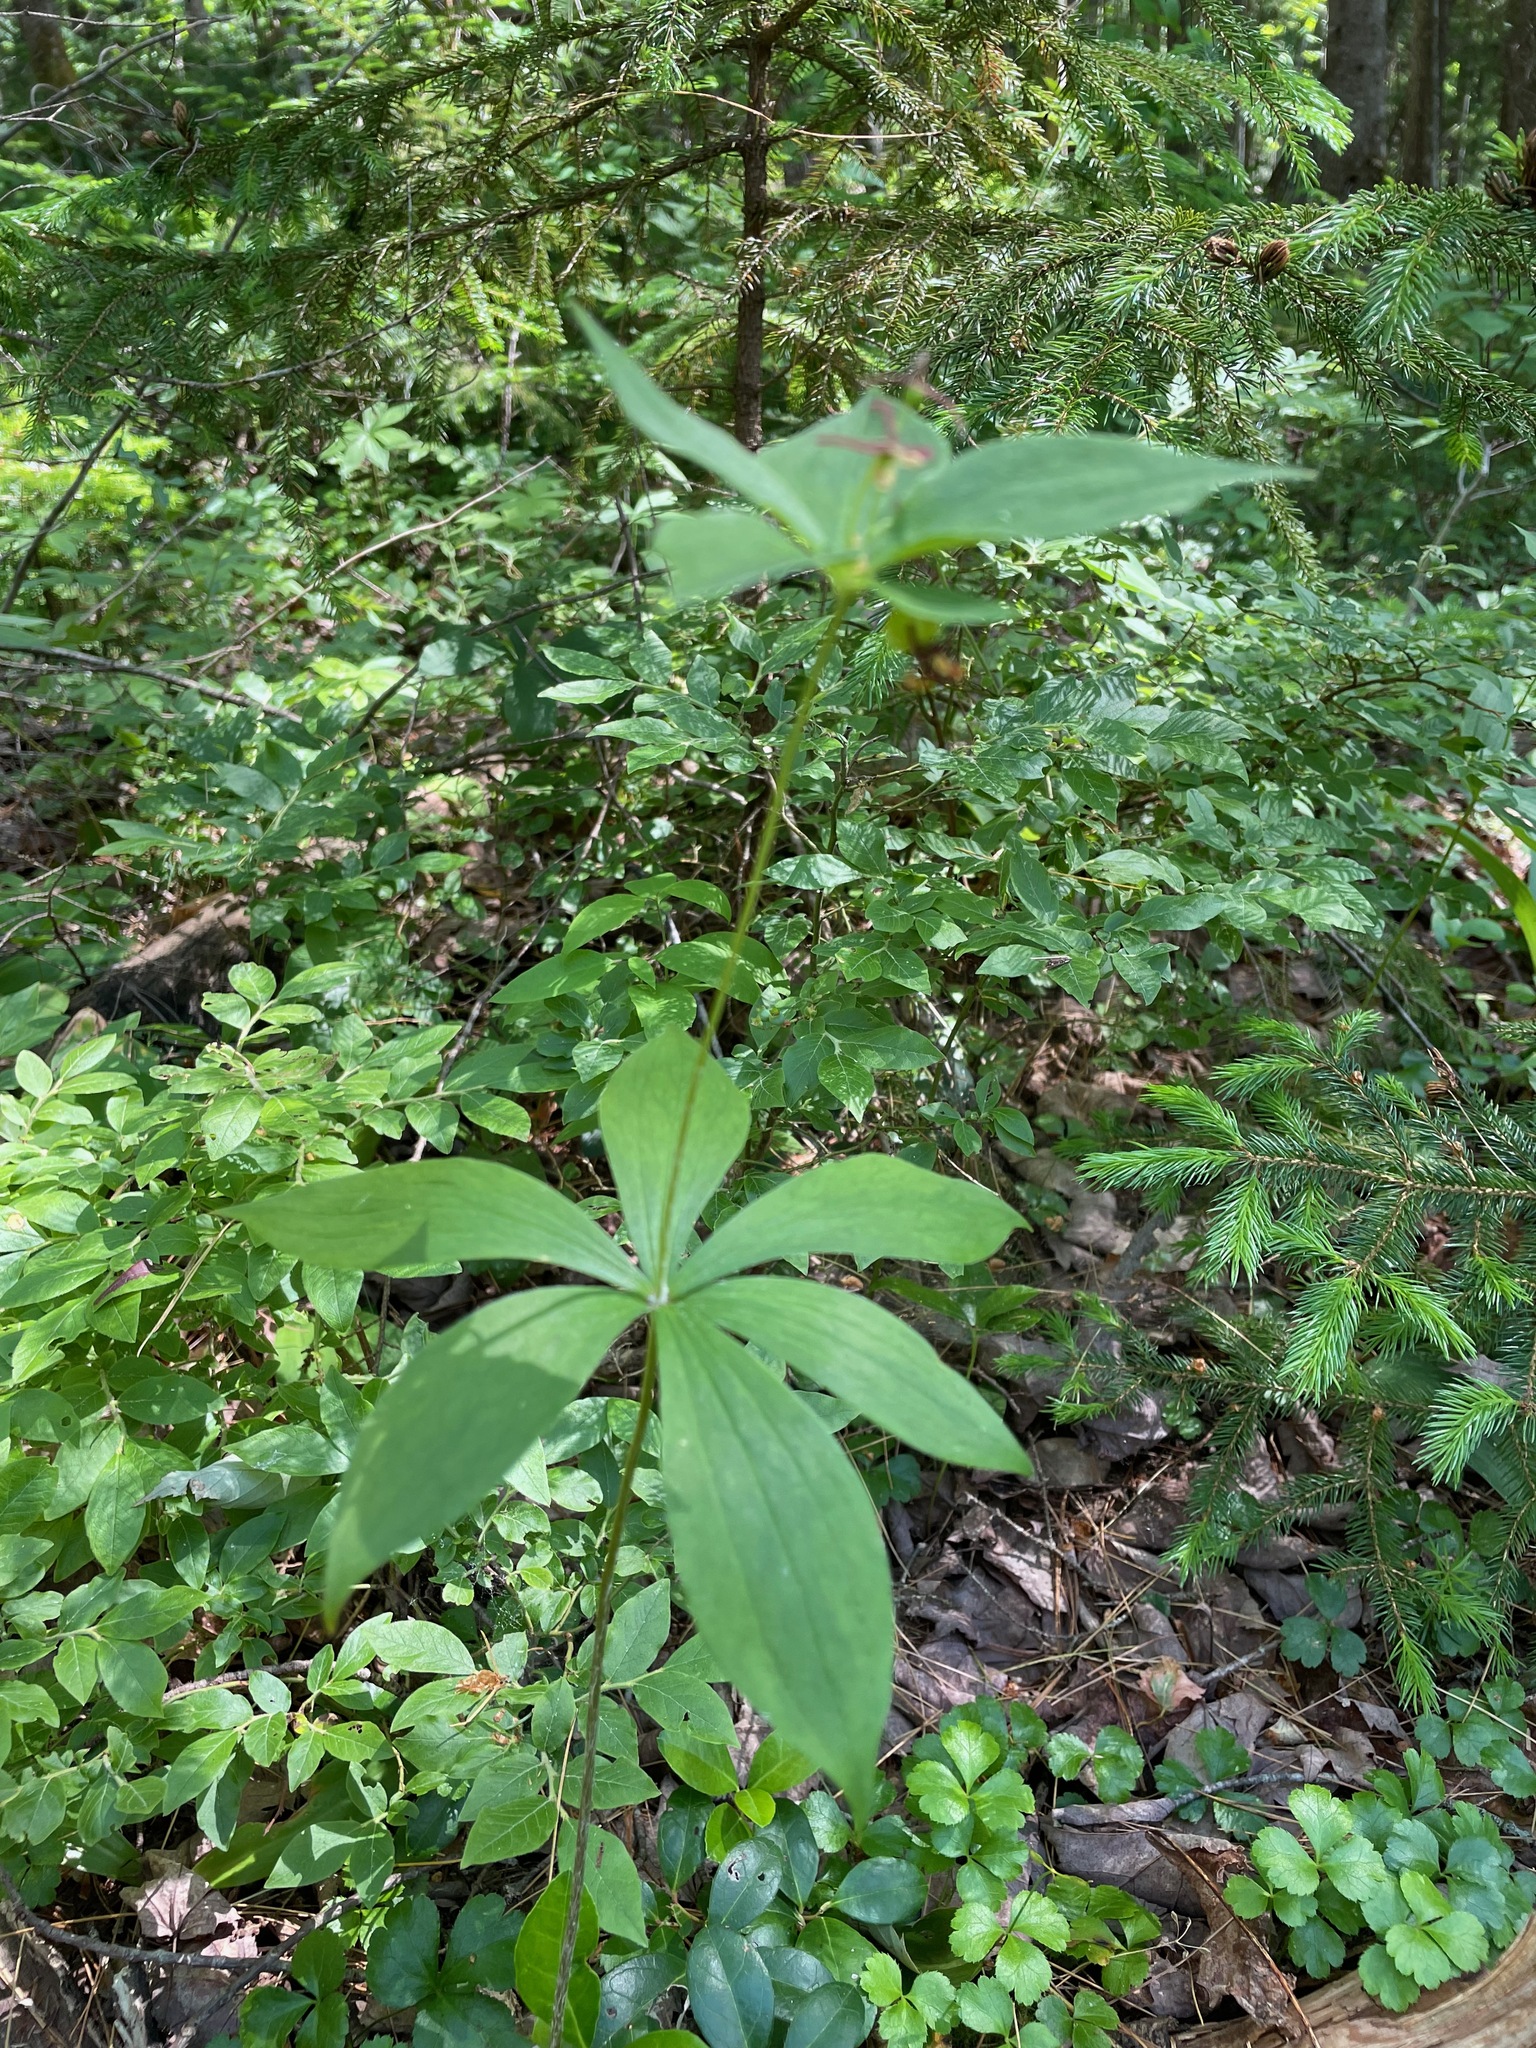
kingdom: Plantae
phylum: Tracheophyta
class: Liliopsida
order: Liliales
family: Liliaceae
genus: Medeola
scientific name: Medeola virginiana
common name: Indian cucumber-root
